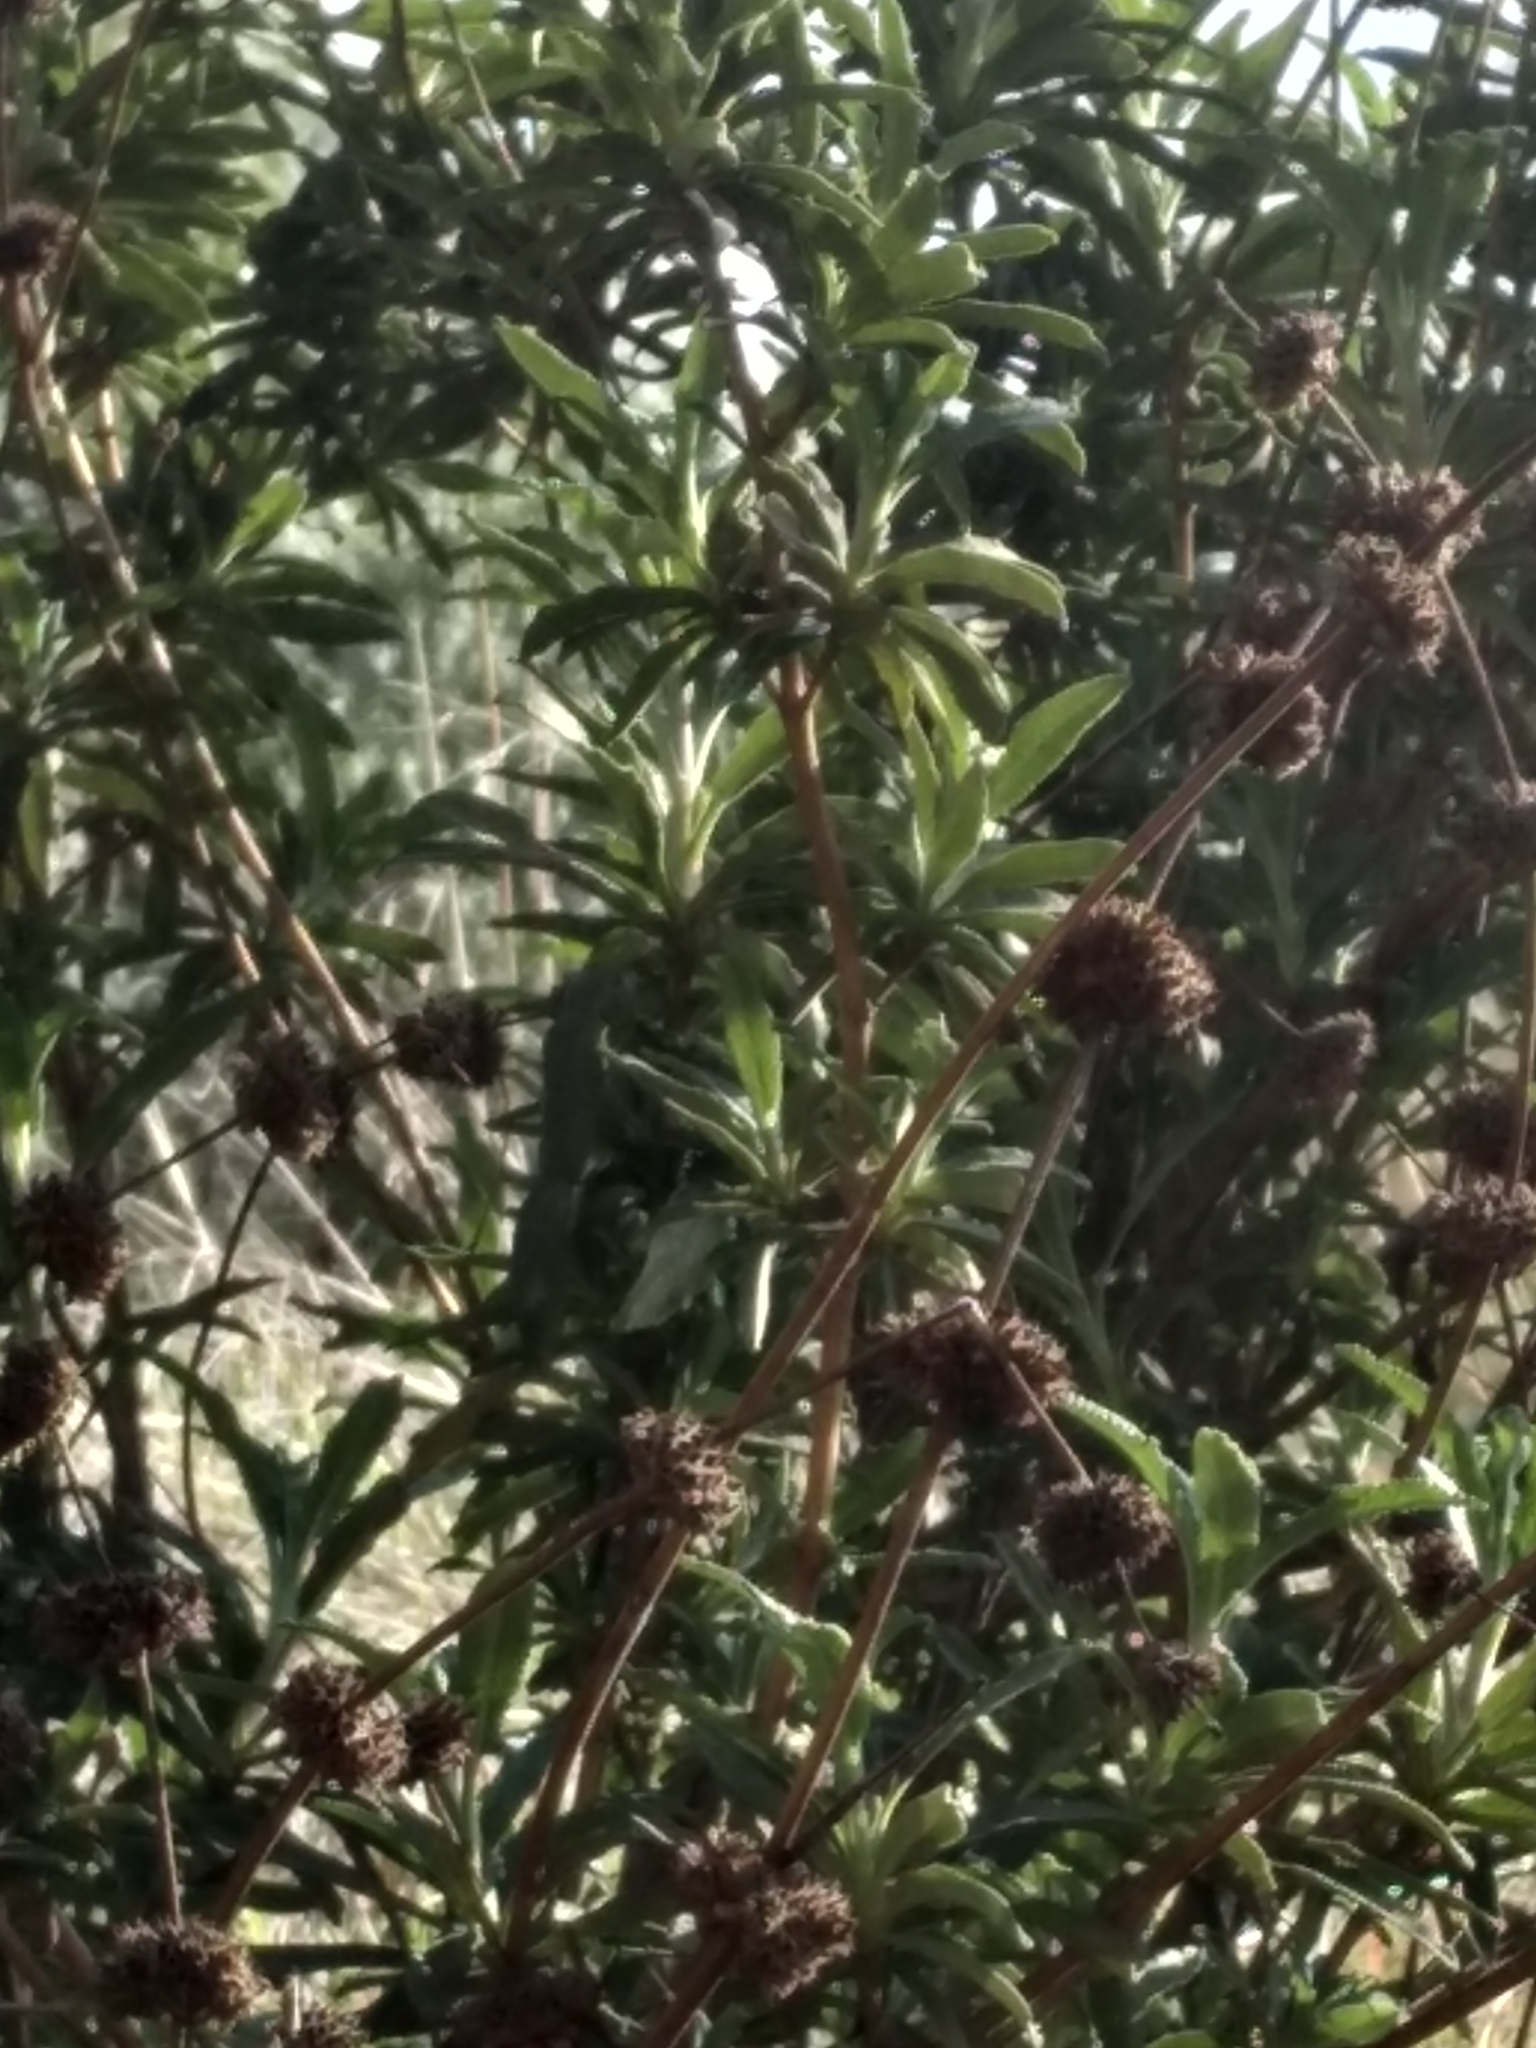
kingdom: Plantae
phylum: Tracheophyta
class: Magnoliopsida
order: Lamiales
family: Lamiaceae
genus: Salvia
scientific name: Salvia mellifera
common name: Black sage
